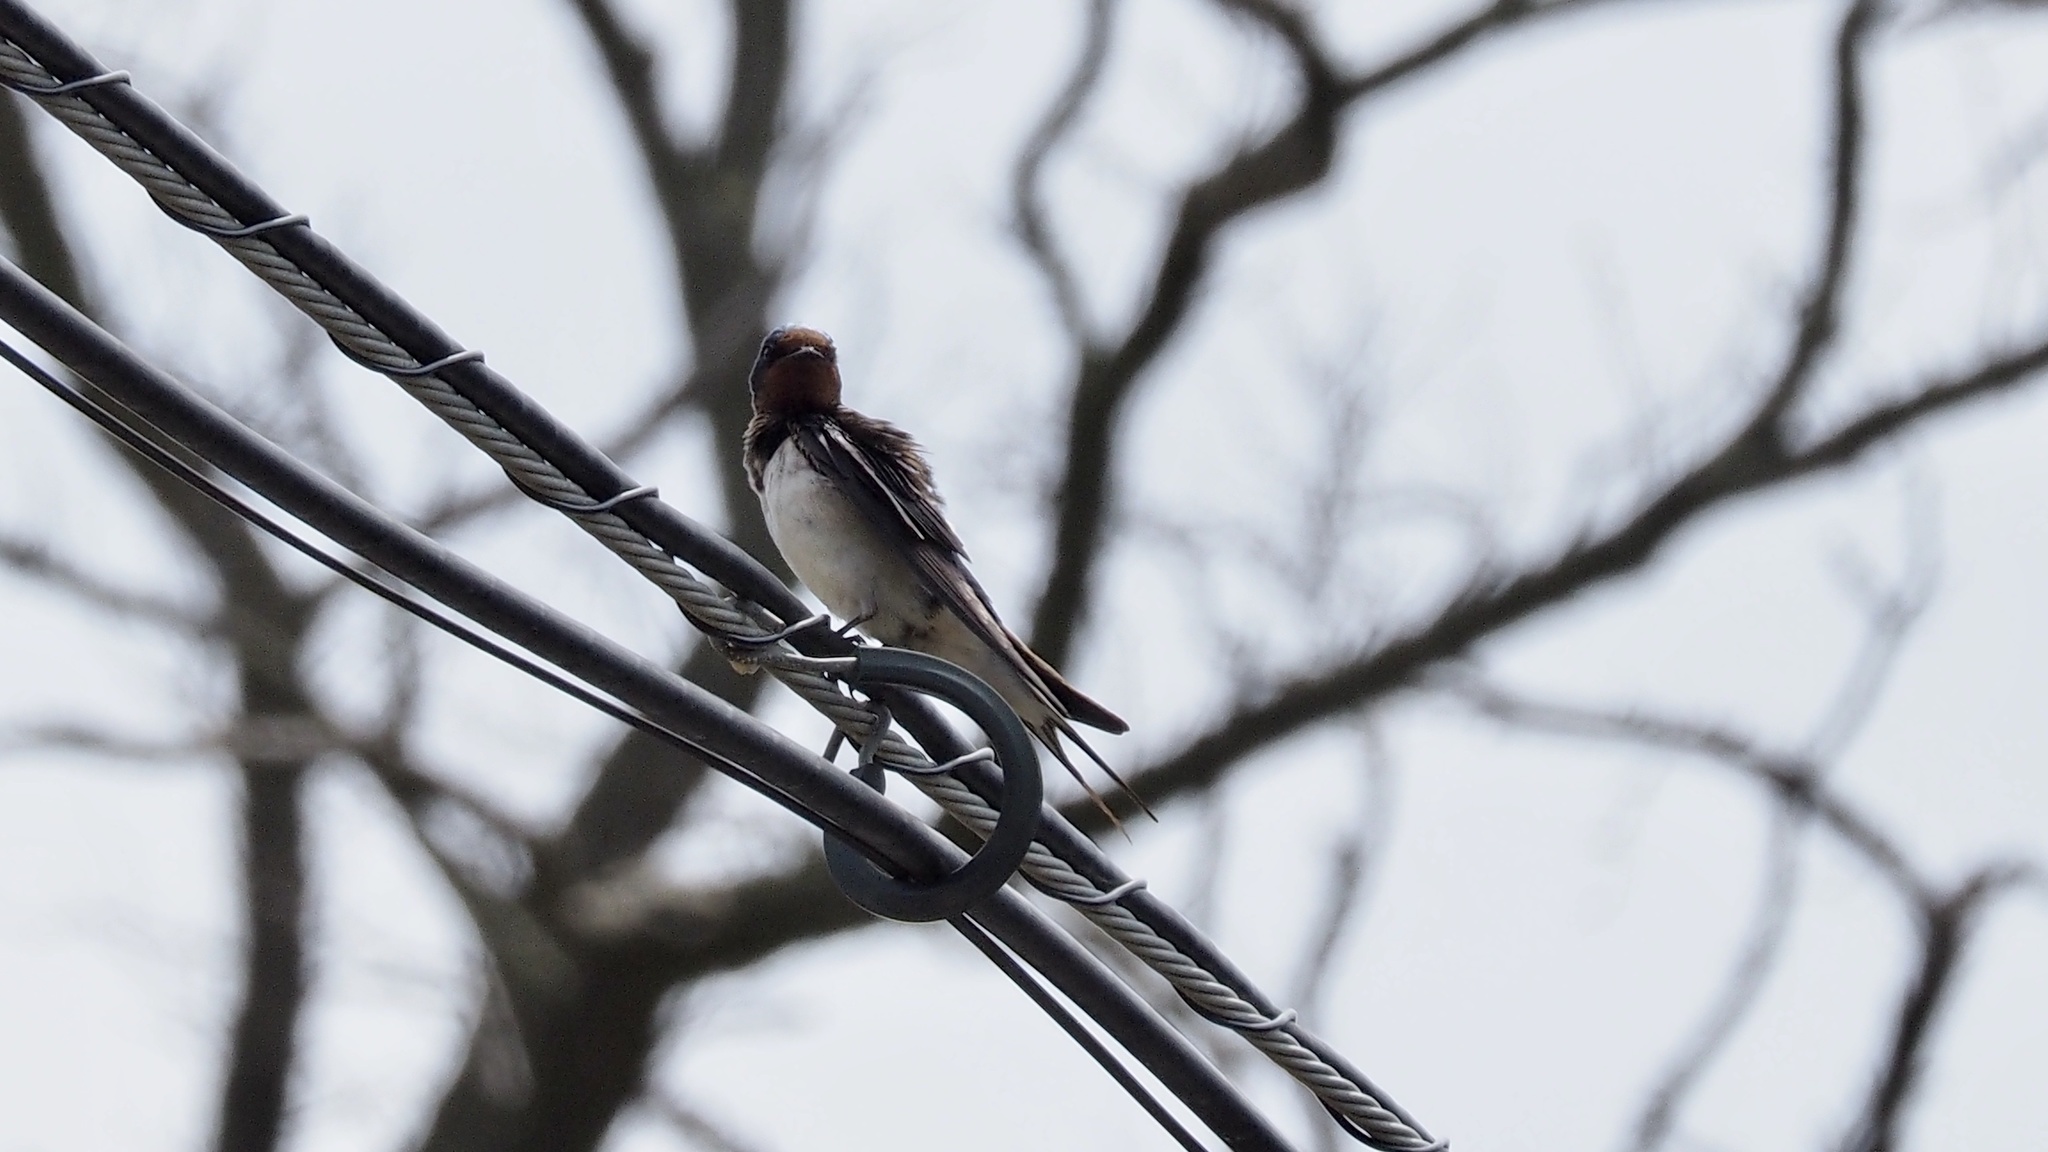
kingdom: Animalia
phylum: Chordata
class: Aves
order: Passeriformes
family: Hirundinidae
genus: Hirundo
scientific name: Hirundo rustica
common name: Barn swallow
